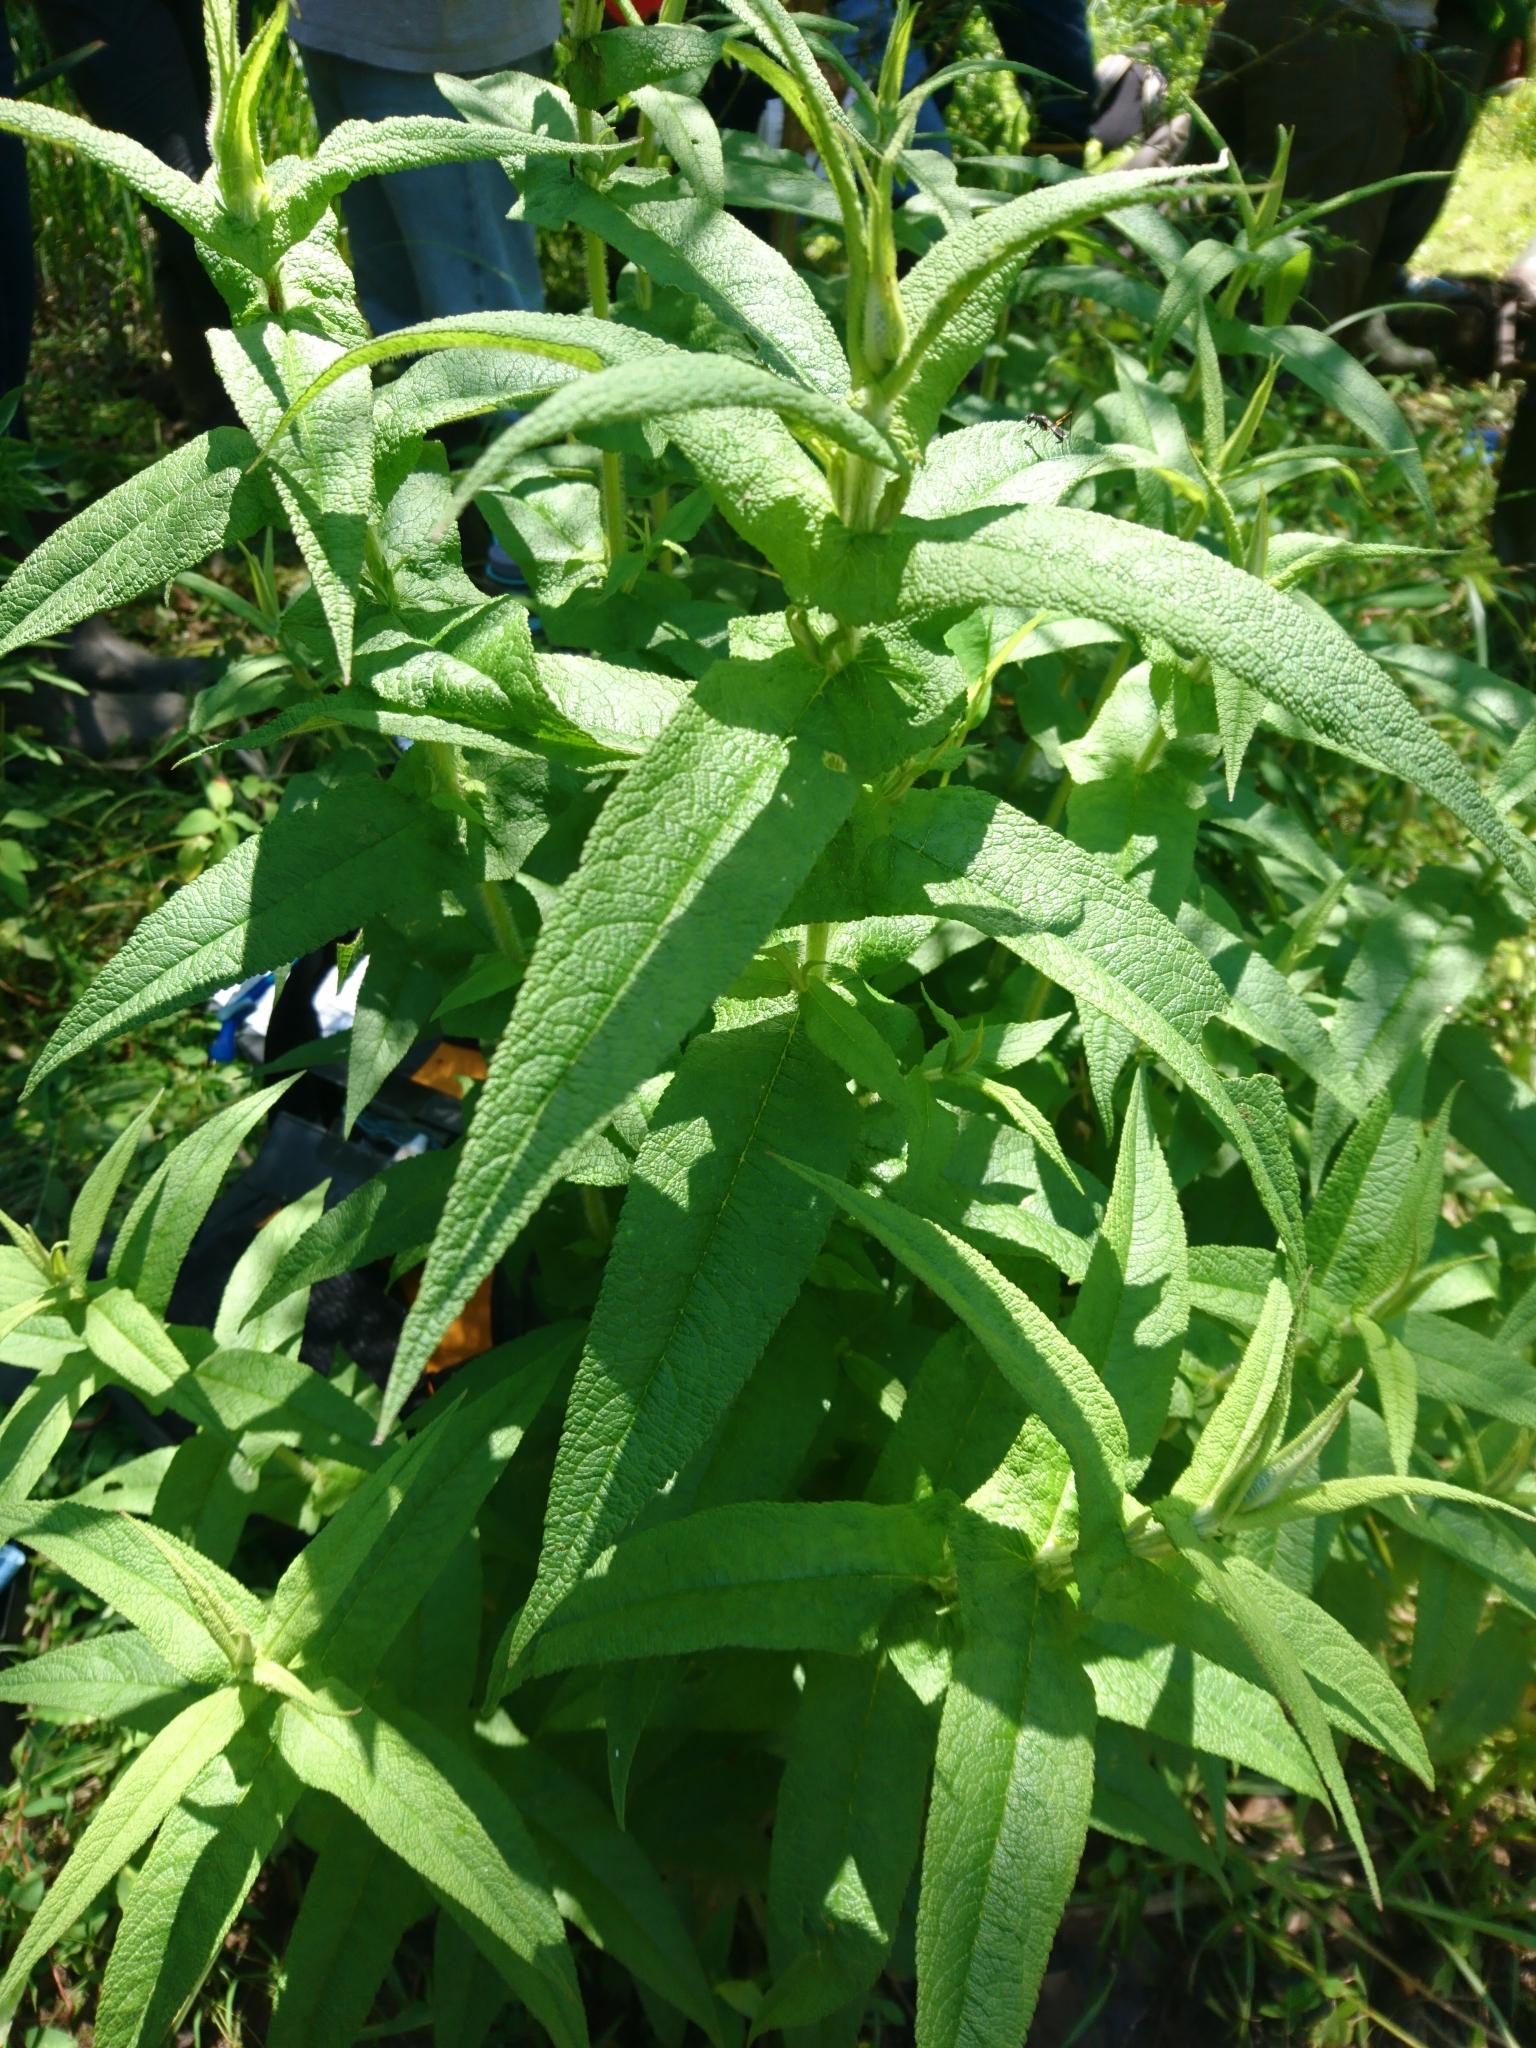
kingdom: Plantae
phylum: Tracheophyta
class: Magnoliopsida
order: Asterales
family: Asteraceae
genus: Eupatorium
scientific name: Eupatorium perfoliatum
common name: Boneset
